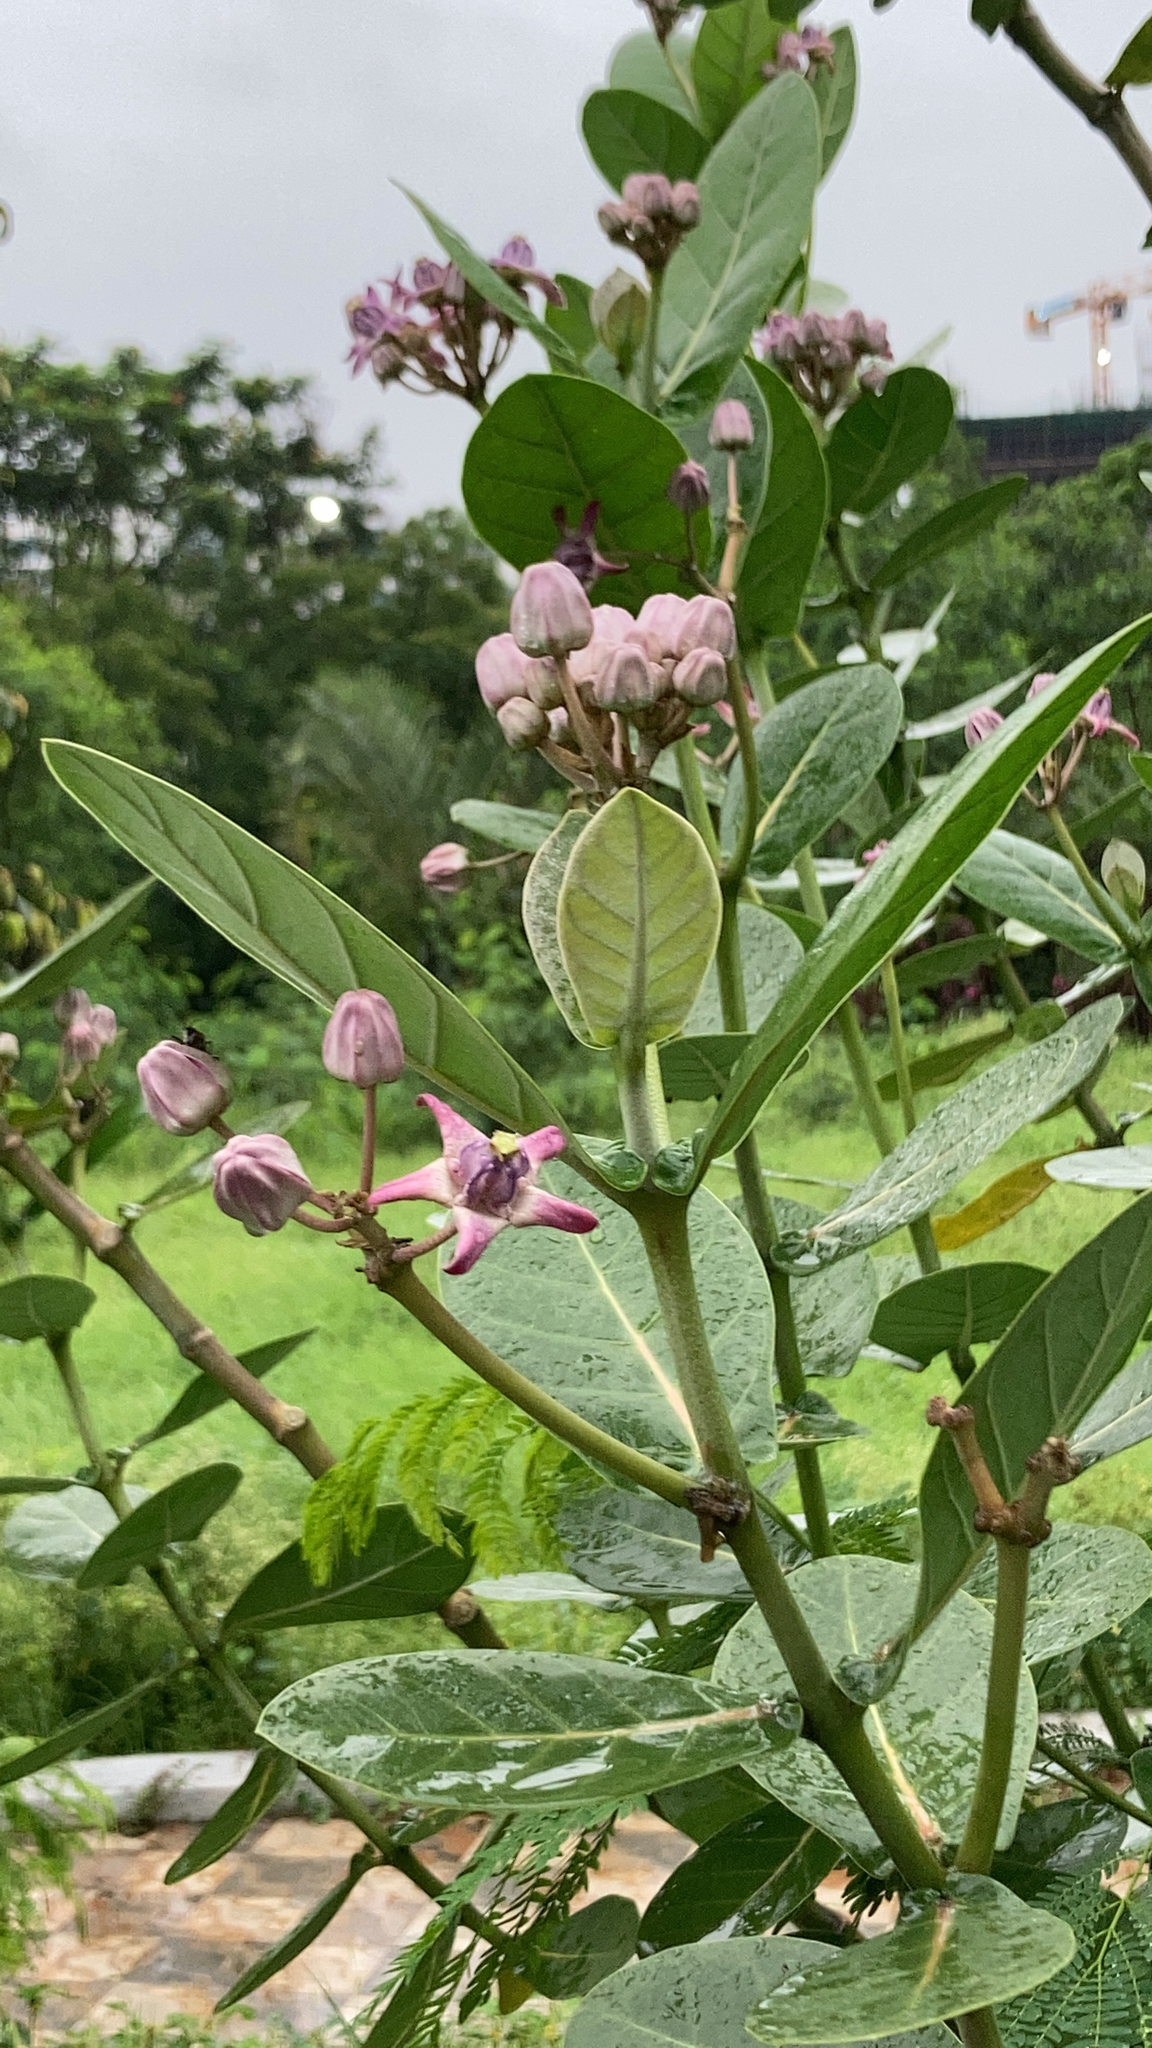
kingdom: Plantae
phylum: Tracheophyta
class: Magnoliopsida
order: Gentianales
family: Apocynaceae
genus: Calotropis
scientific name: Calotropis gigantea
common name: Crown flower
